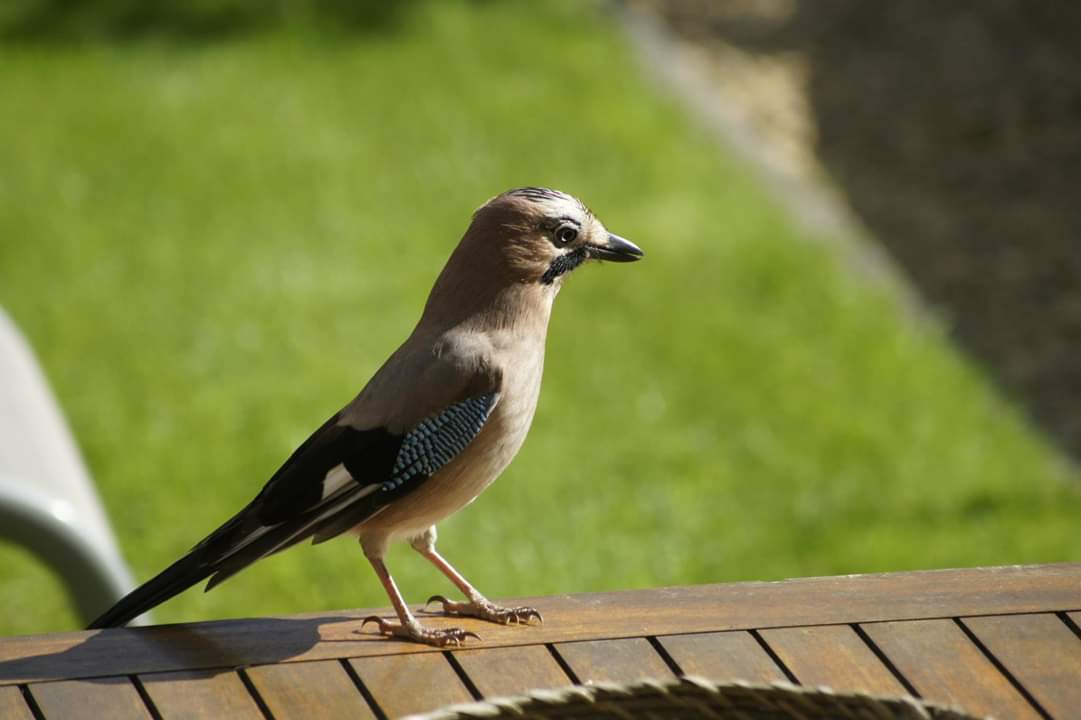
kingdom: Animalia
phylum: Chordata
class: Aves
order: Passeriformes
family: Corvidae
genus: Garrulus
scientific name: Garrulus glandarius
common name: Eurasian jay
